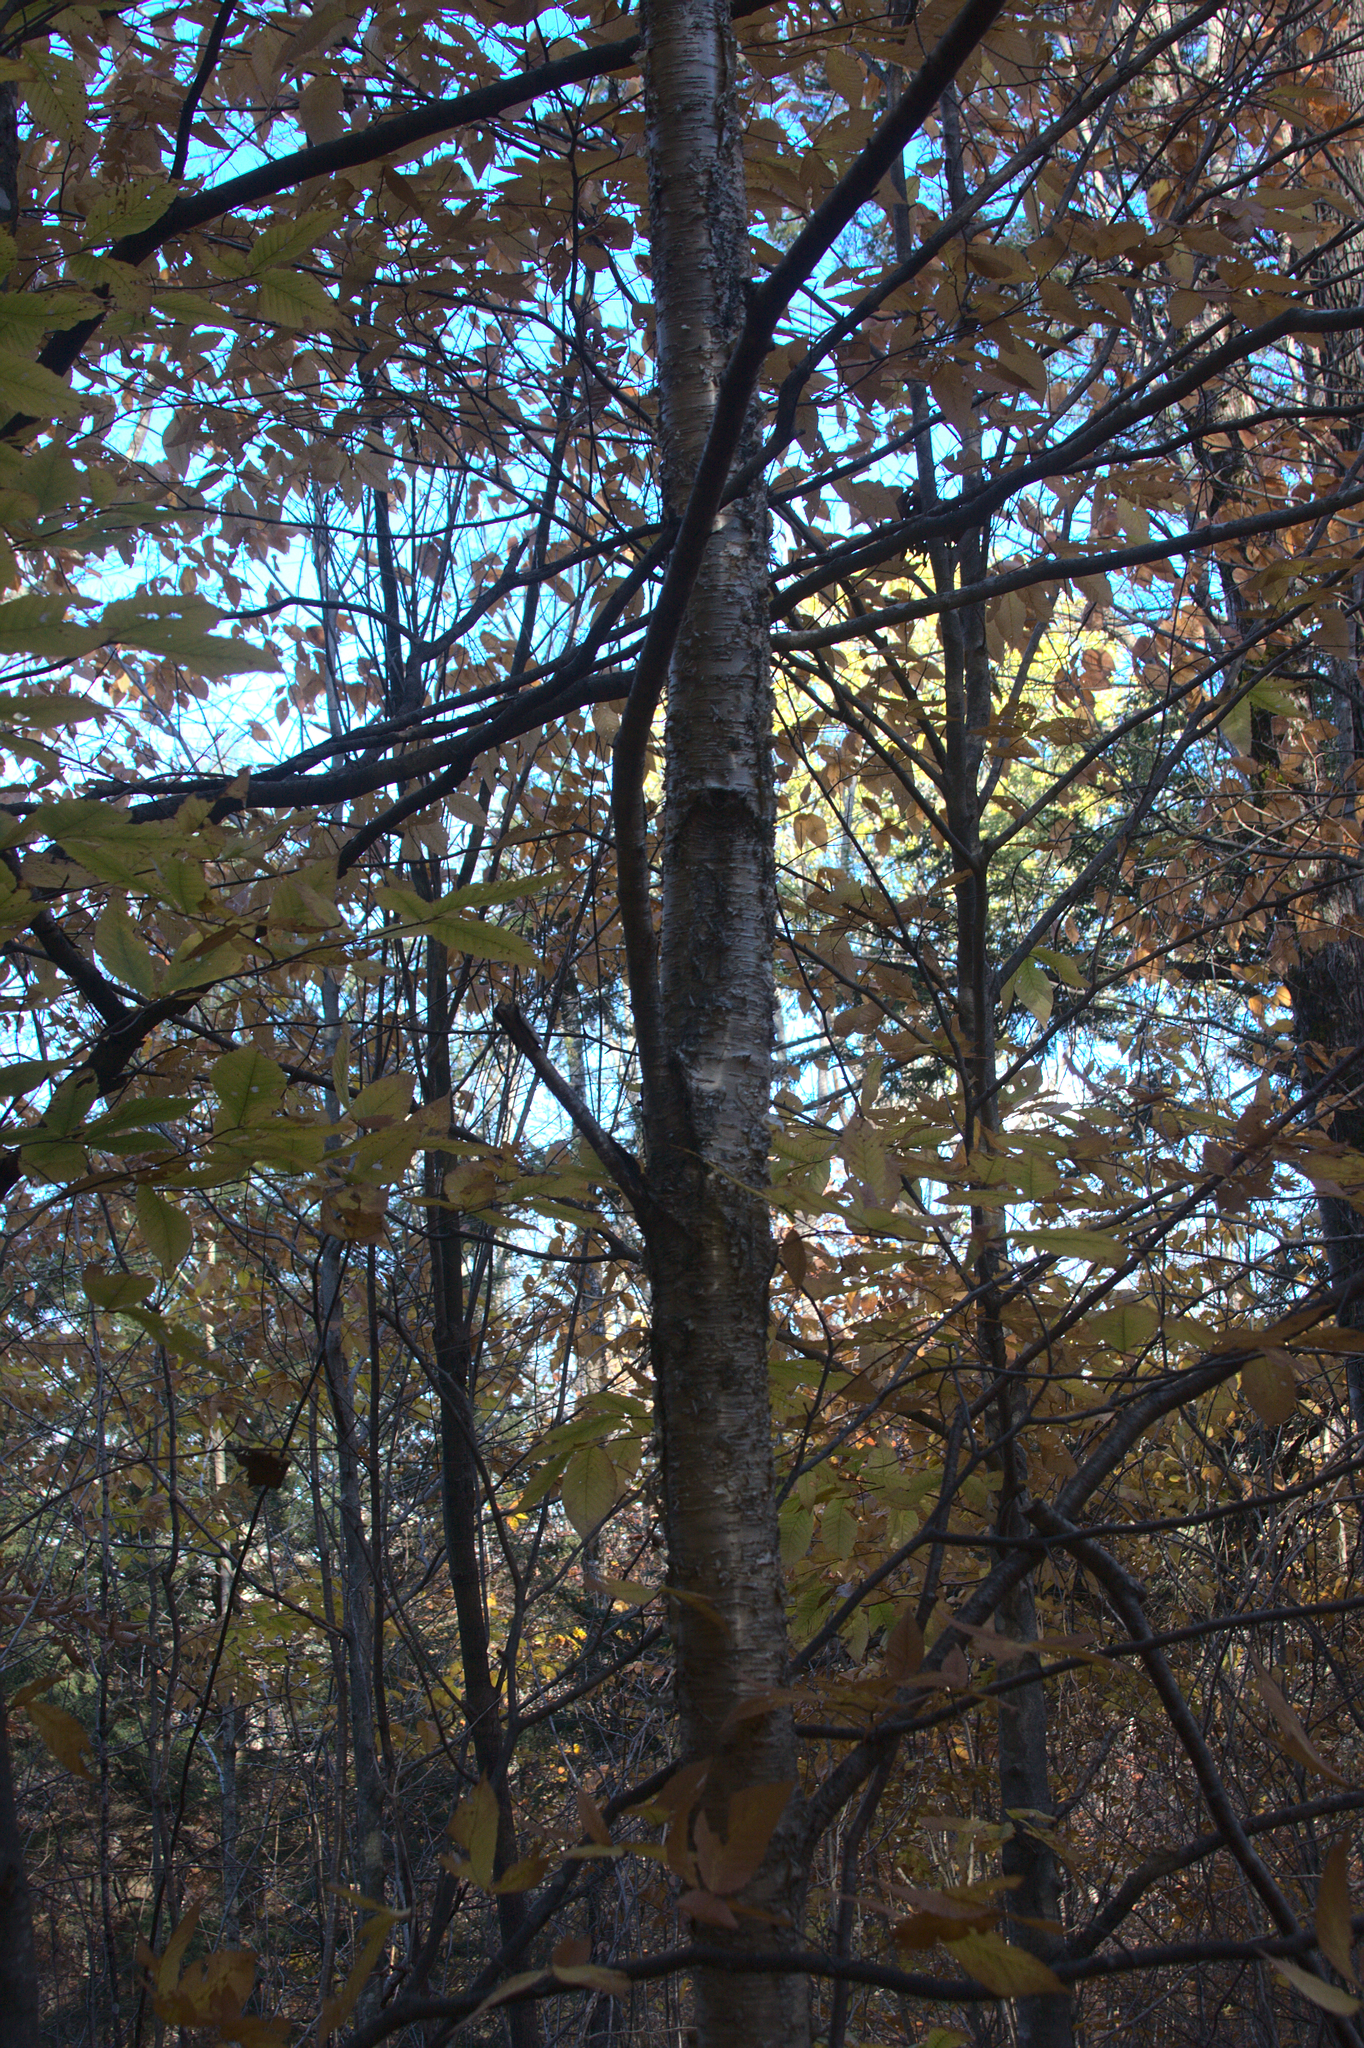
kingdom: Plantae
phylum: Tracheophyta
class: Magnoliopsida
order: Fagales
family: Betulaceae
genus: Betula
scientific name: Betula alleghaniensis
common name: Yellow birch
